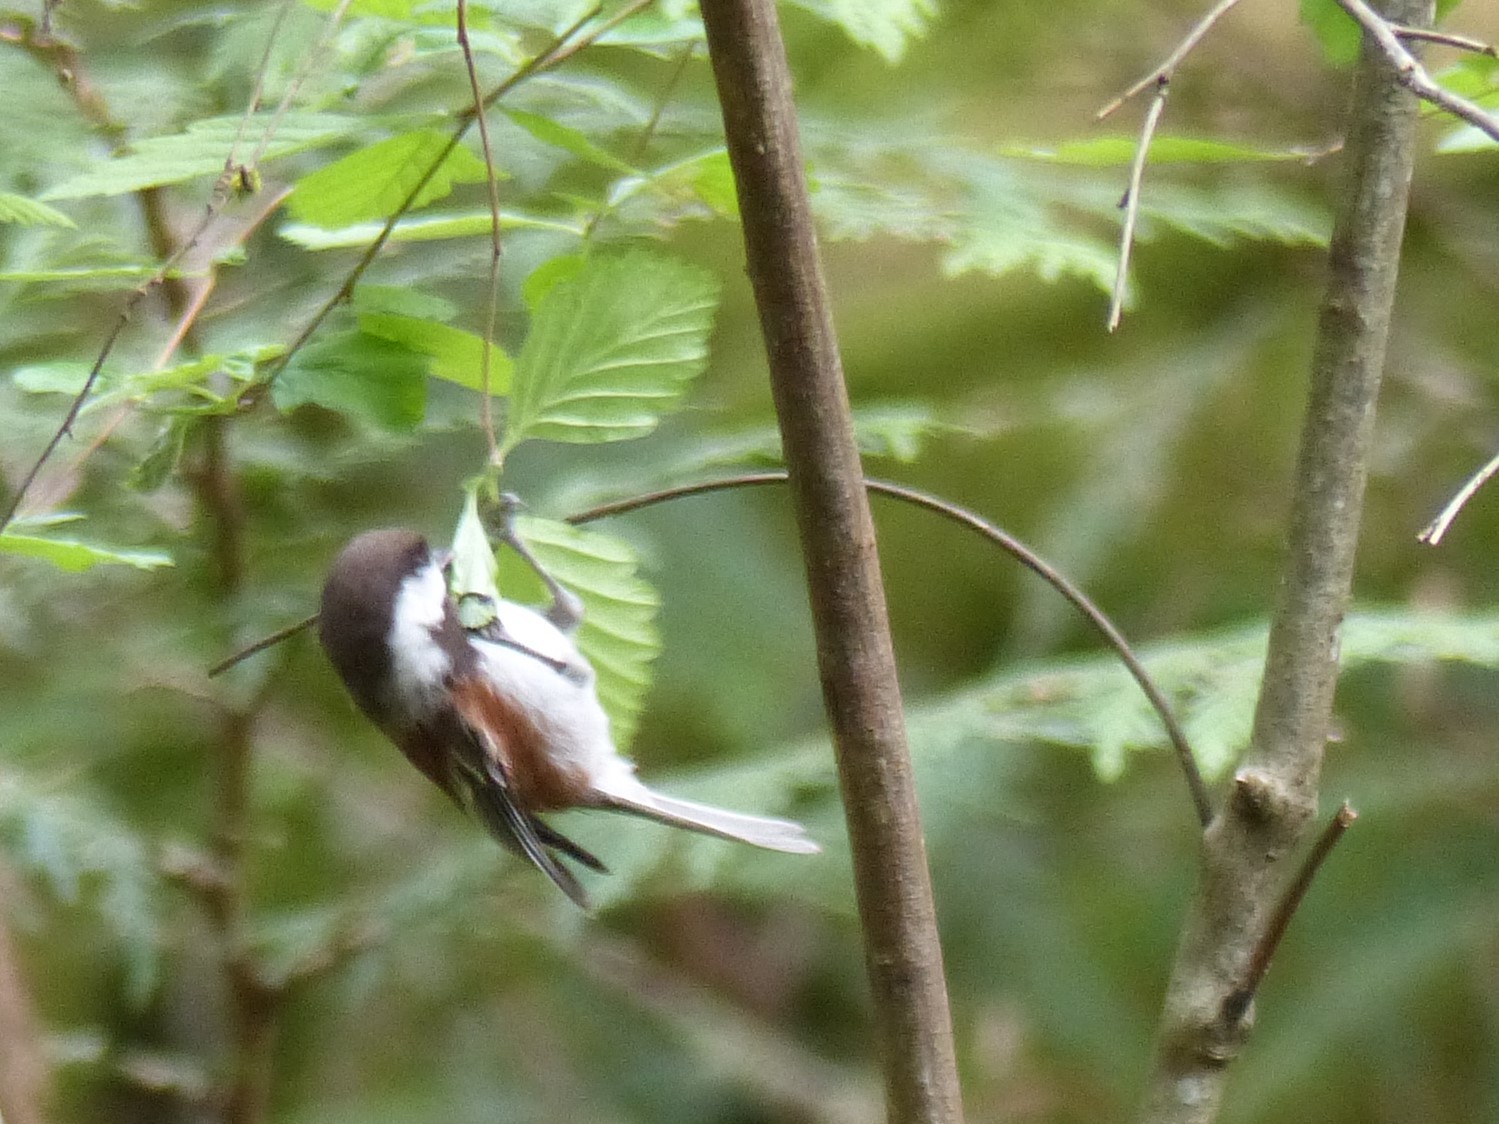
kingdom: Animalia
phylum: Chordata
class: Aves
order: Passeriformes
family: Paridae
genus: Poecile
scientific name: Poecile rufescens
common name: Chestnut-backed chickadee
